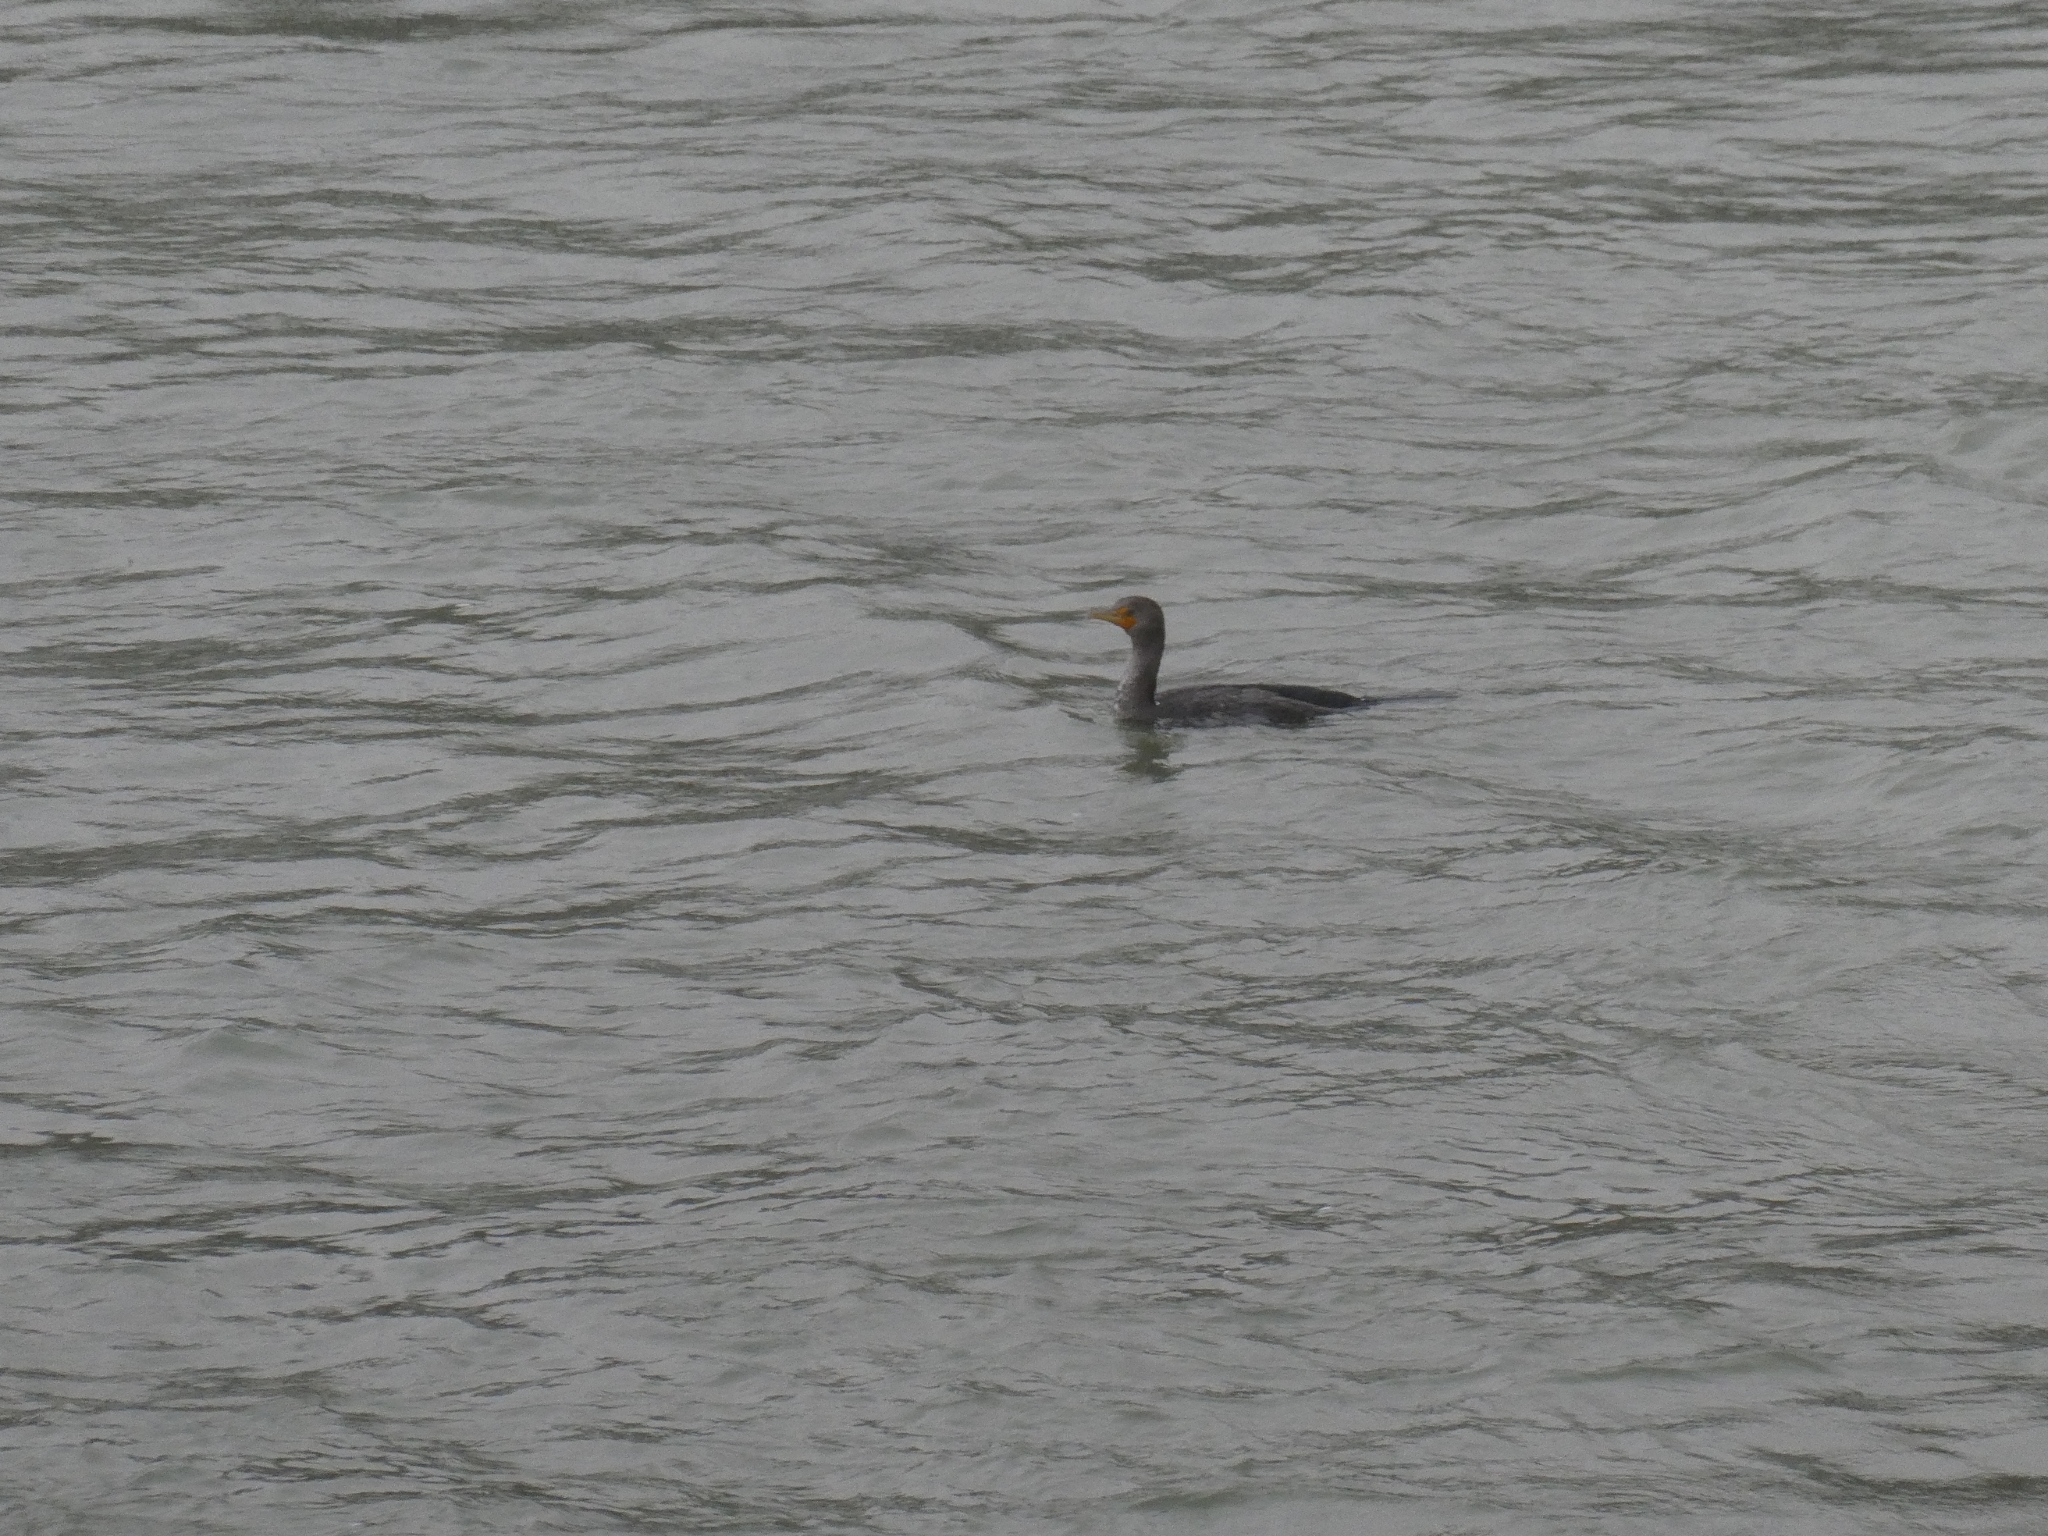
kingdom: Animalia
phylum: Chordata
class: Aves
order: Suliformes
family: Phalacrocoracidae
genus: Phalacrocorax
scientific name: Phalacrocorax auritus
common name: Double-crested cormorant
